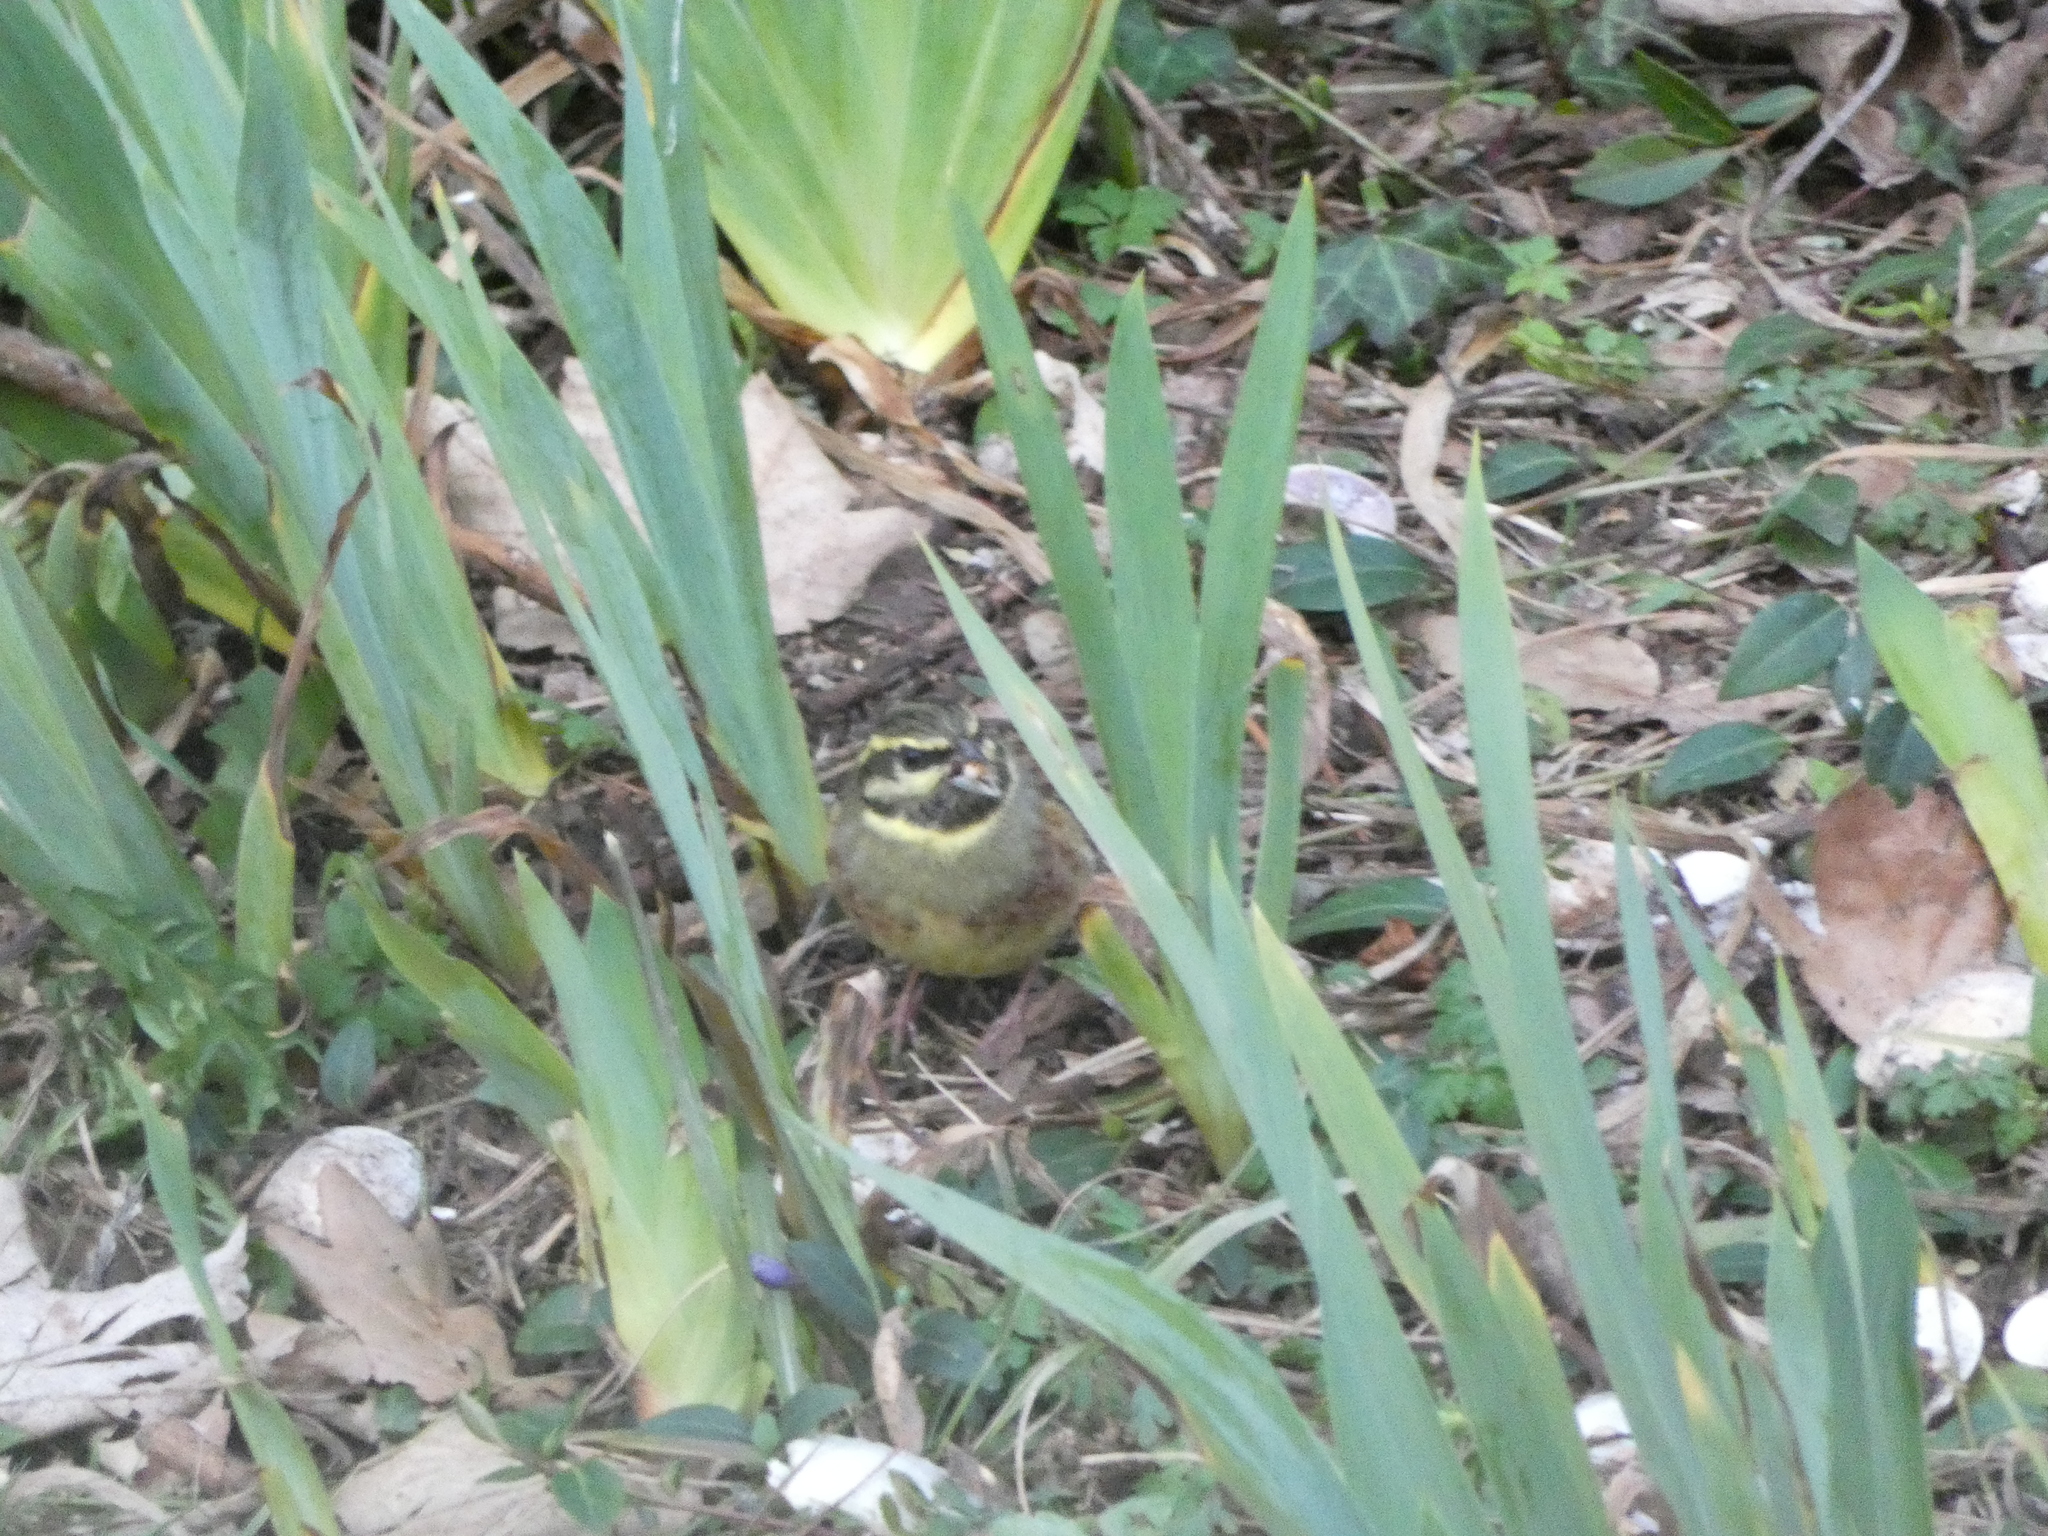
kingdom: Animalia
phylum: Chordata
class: Aves
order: Passeriformes
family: Emberizidae
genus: Emberiza
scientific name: Emberiza cirlus
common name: Cirl bunting
